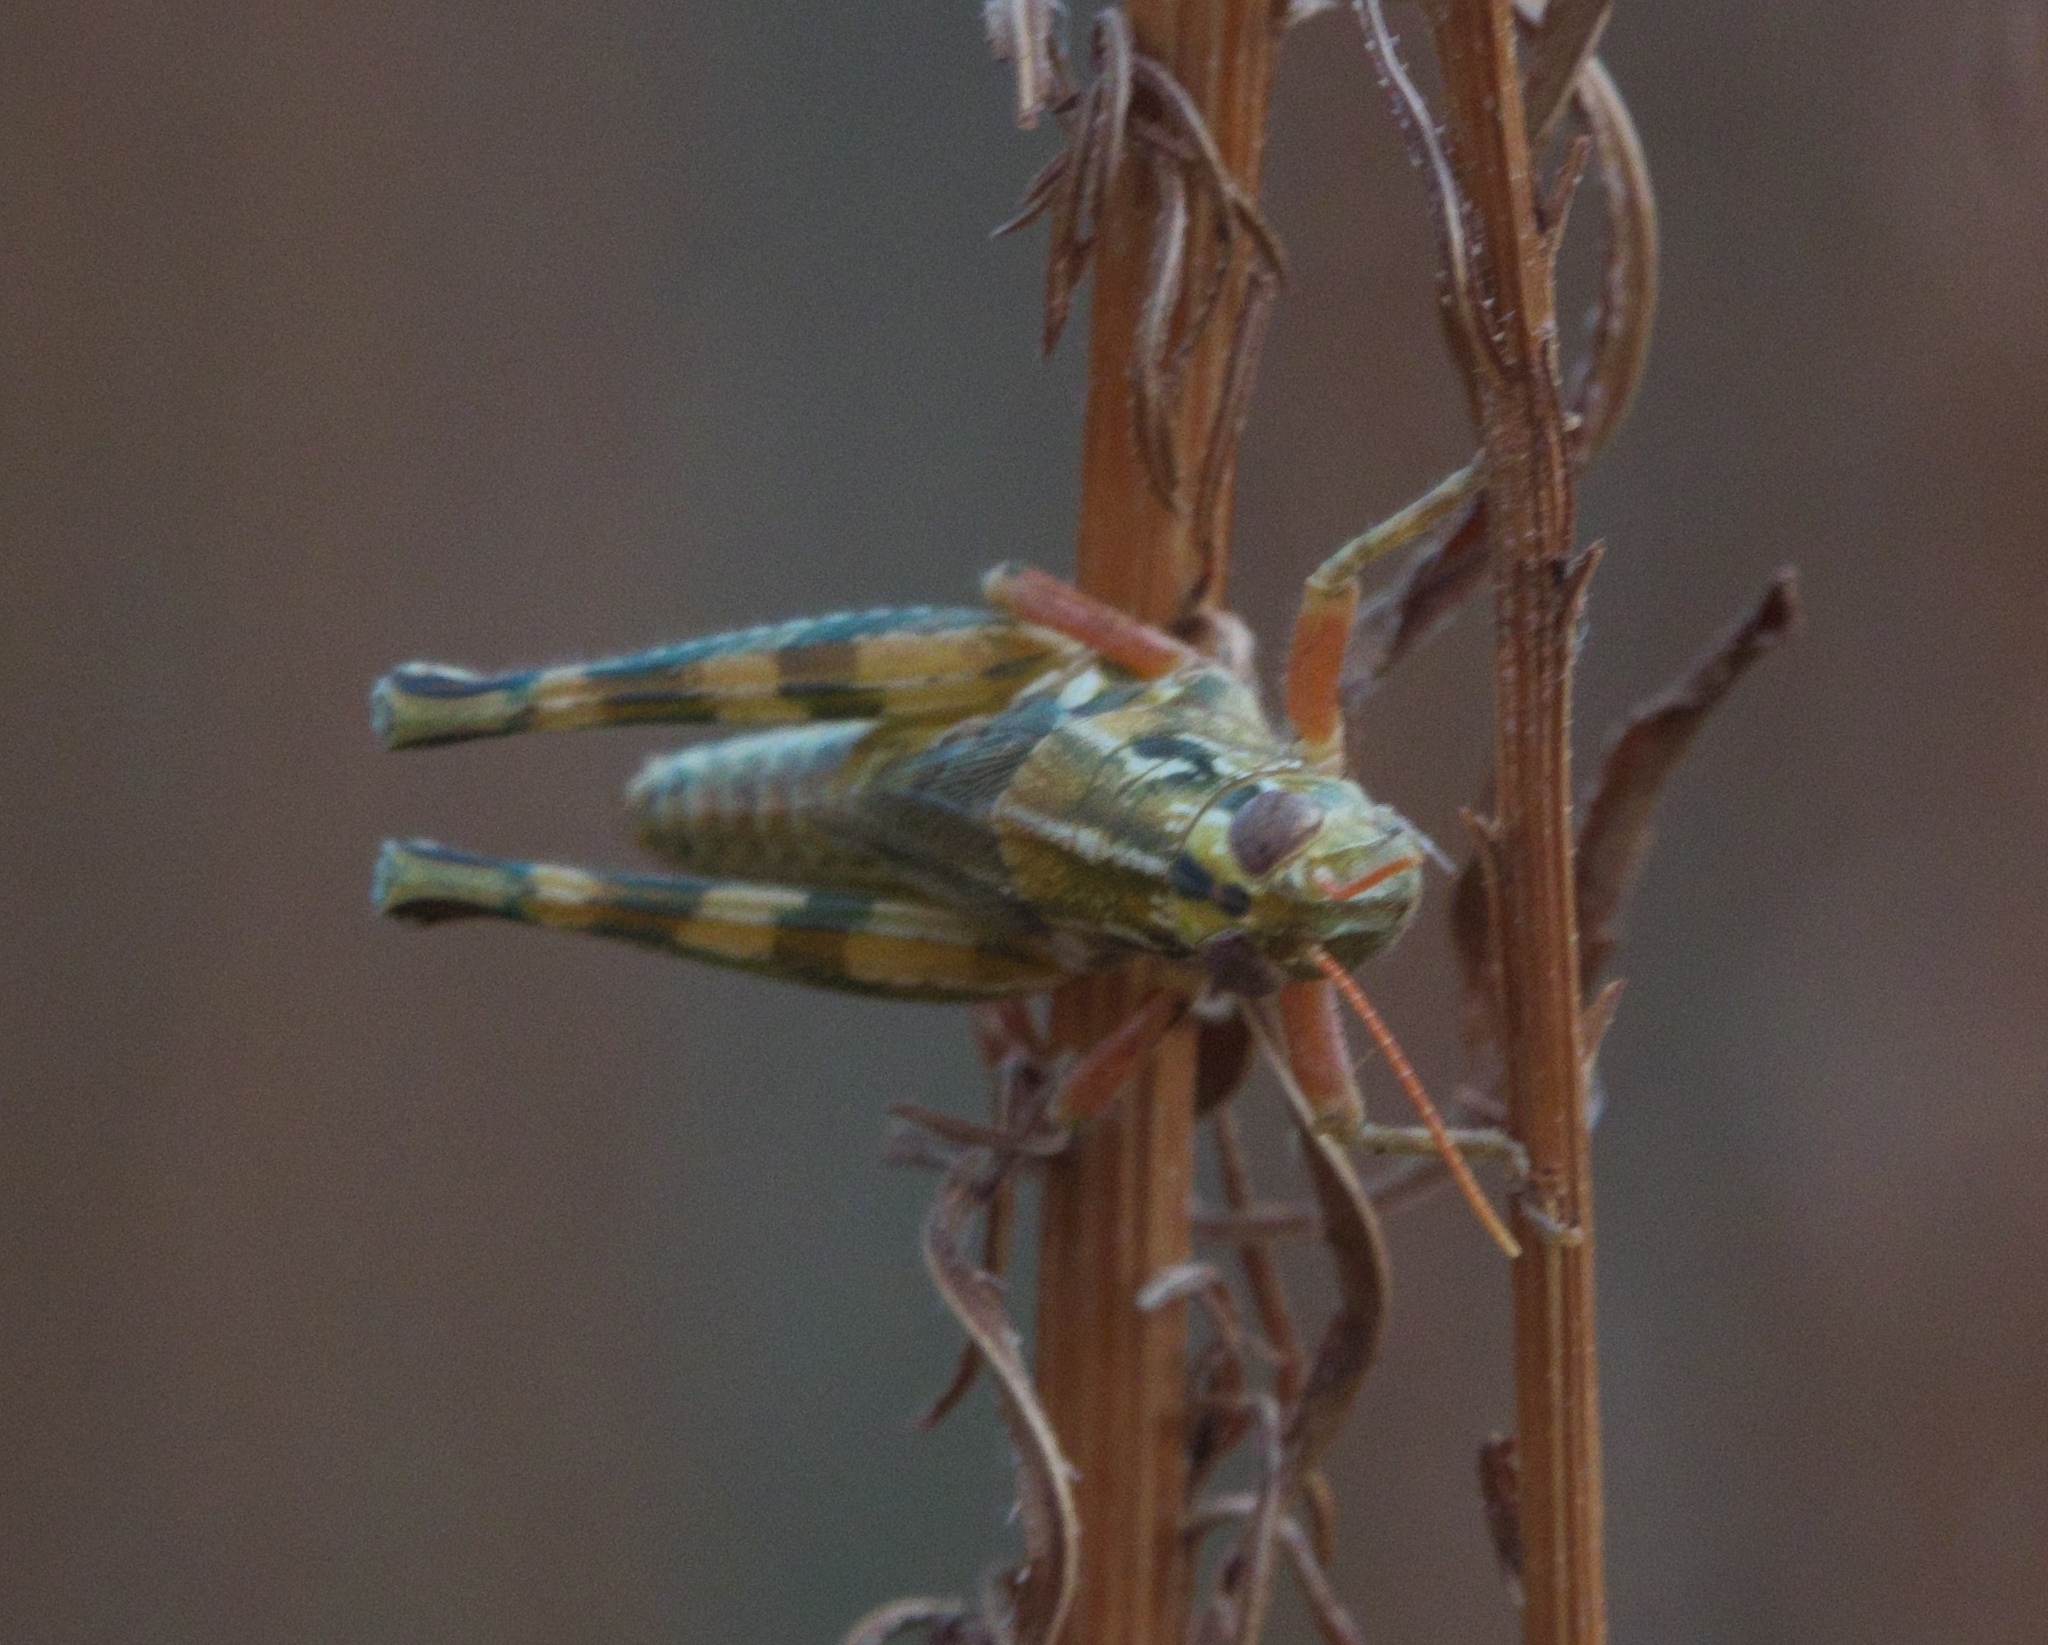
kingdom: Animalia
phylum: Arthropoda
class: Insecta
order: Orthoptera
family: Acrididae
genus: Campylacantha
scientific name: Campylacantha olivacea
